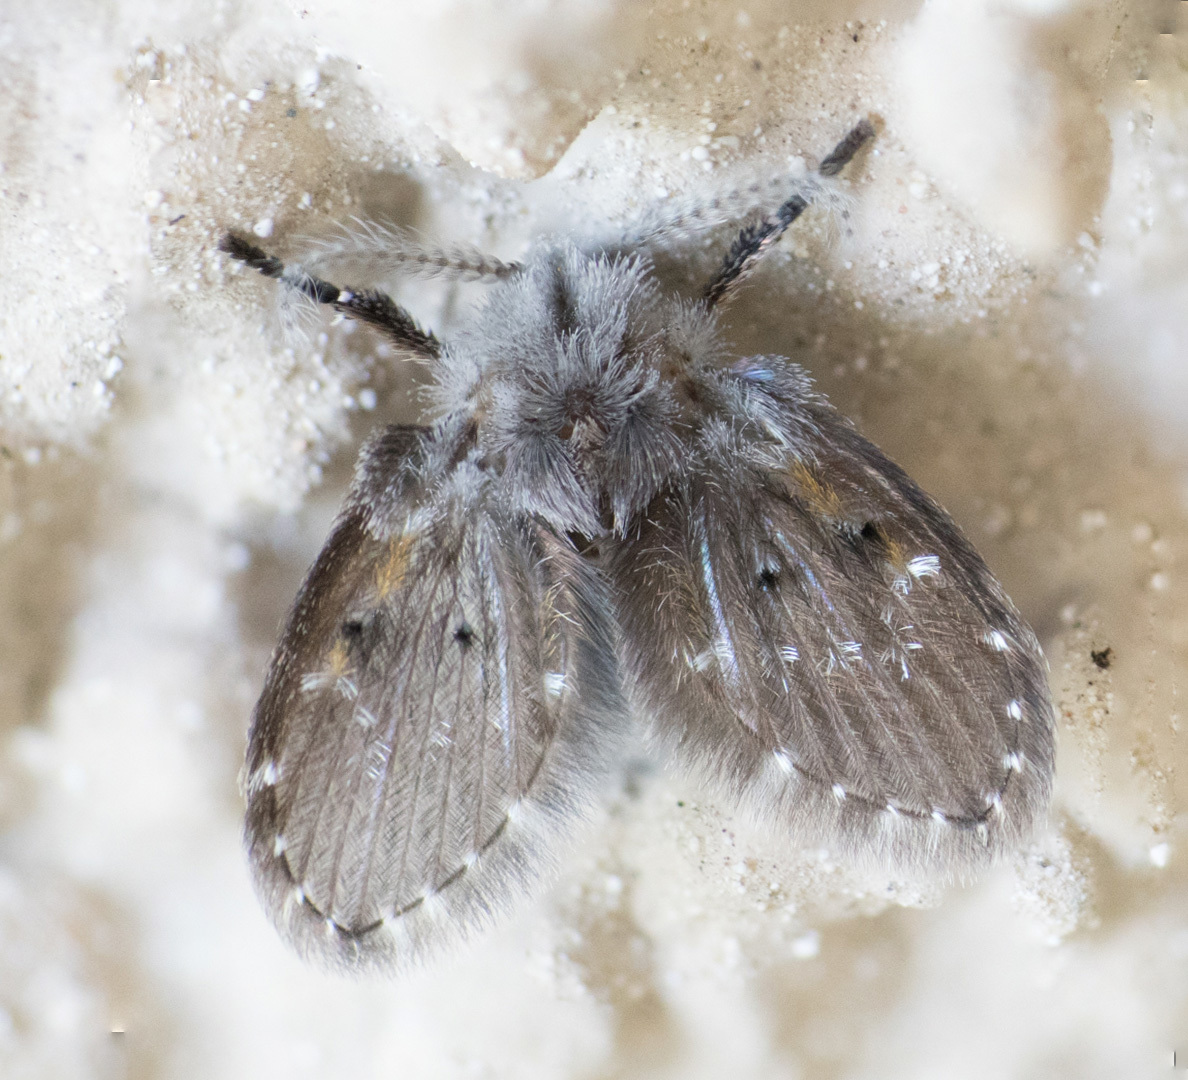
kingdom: Animalia
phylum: Arthropoda
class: Insecta
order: Diptera
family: Psychodidae
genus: Clogmia
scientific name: Clogmia albipunctatus
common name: White-spotted moth fly
